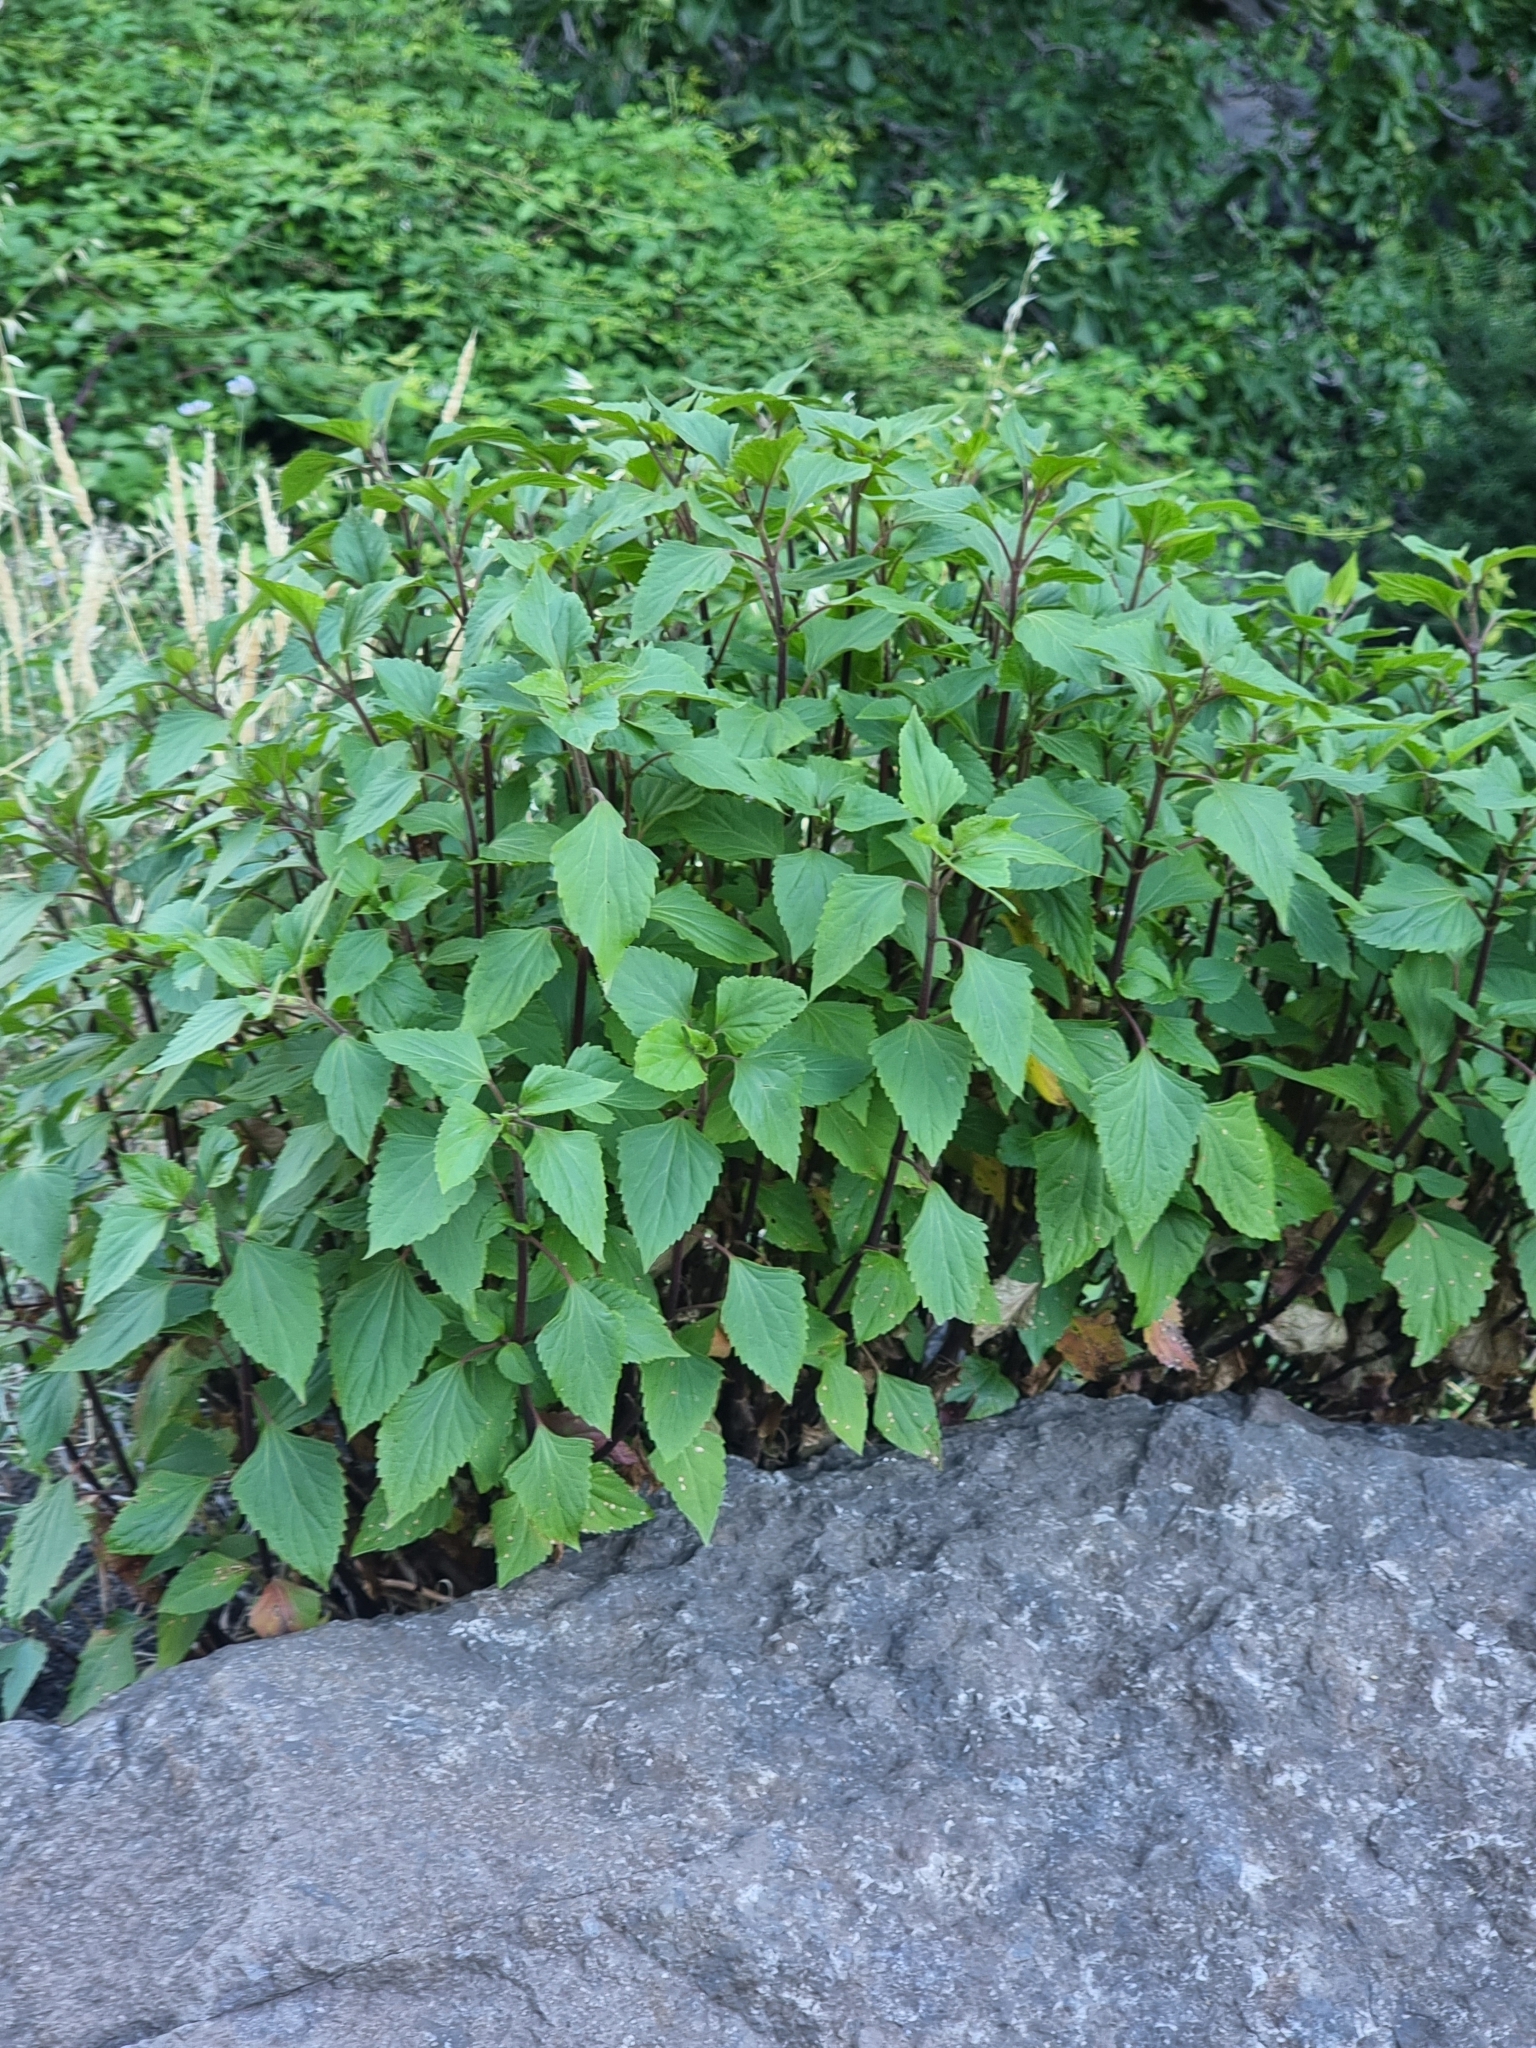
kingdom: Plantae
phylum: Tracheophyta
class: Magnoliopsida
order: Asterales
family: Asteraceae
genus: Ageratina
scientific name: Ageratina adenophora
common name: Sticky snakeroot
